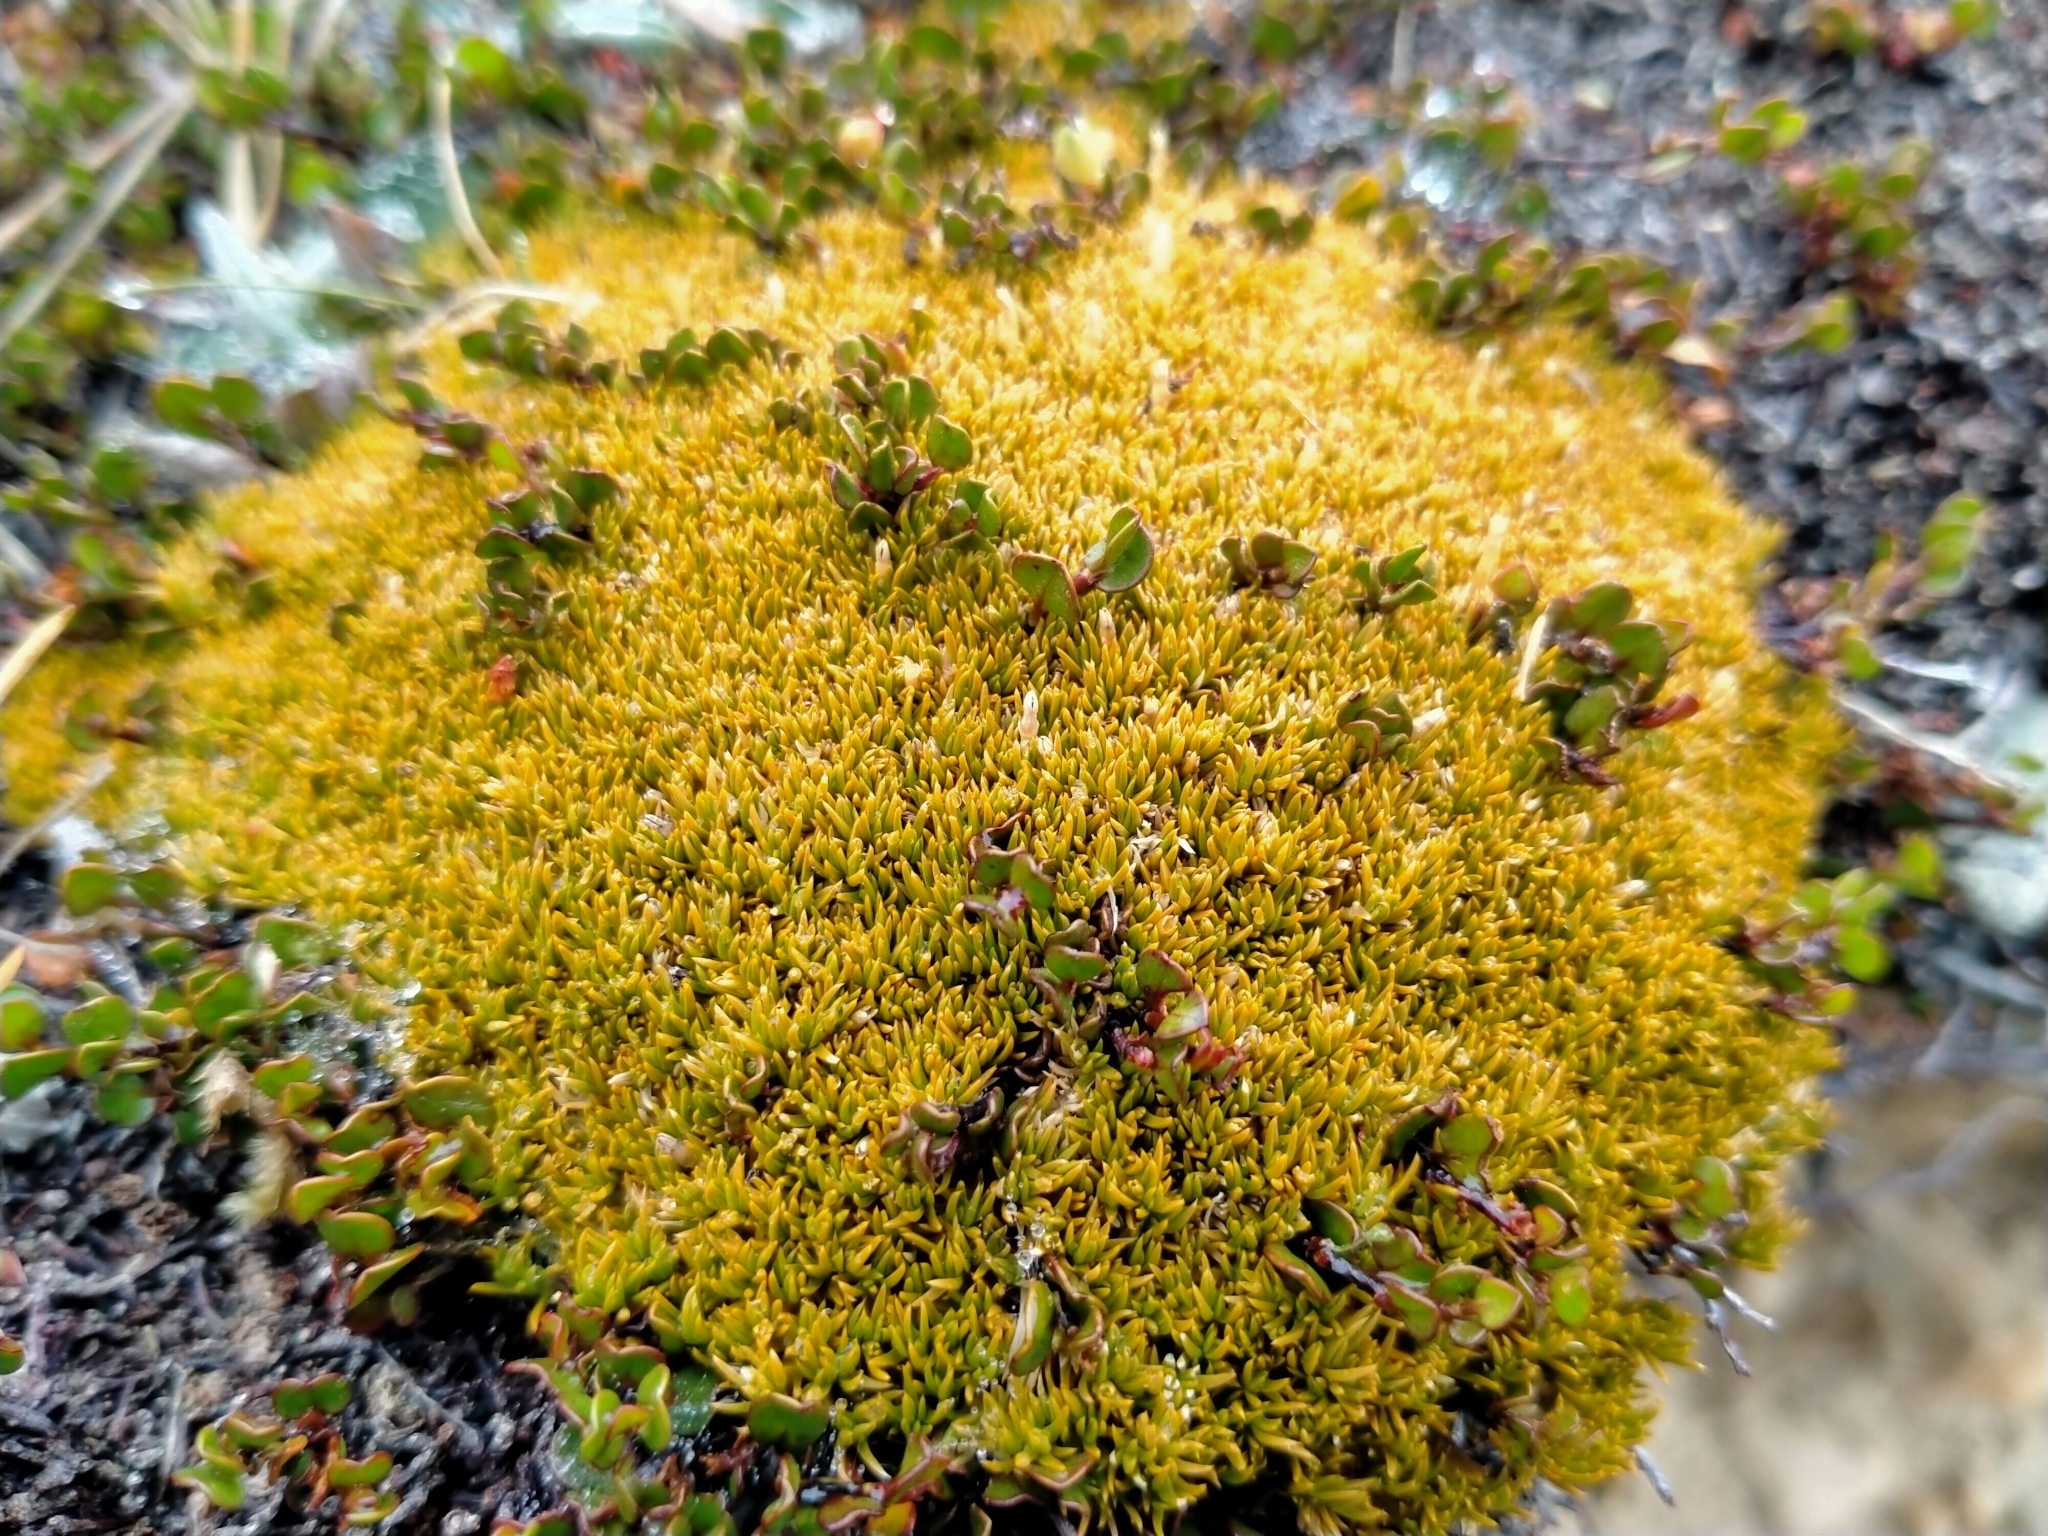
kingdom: Plantae
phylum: Tracheophyta
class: Magnoliopsida
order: Caryophyllales
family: Caryophyllaceae
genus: Scleranthus
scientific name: Scleranthus uniflorus
